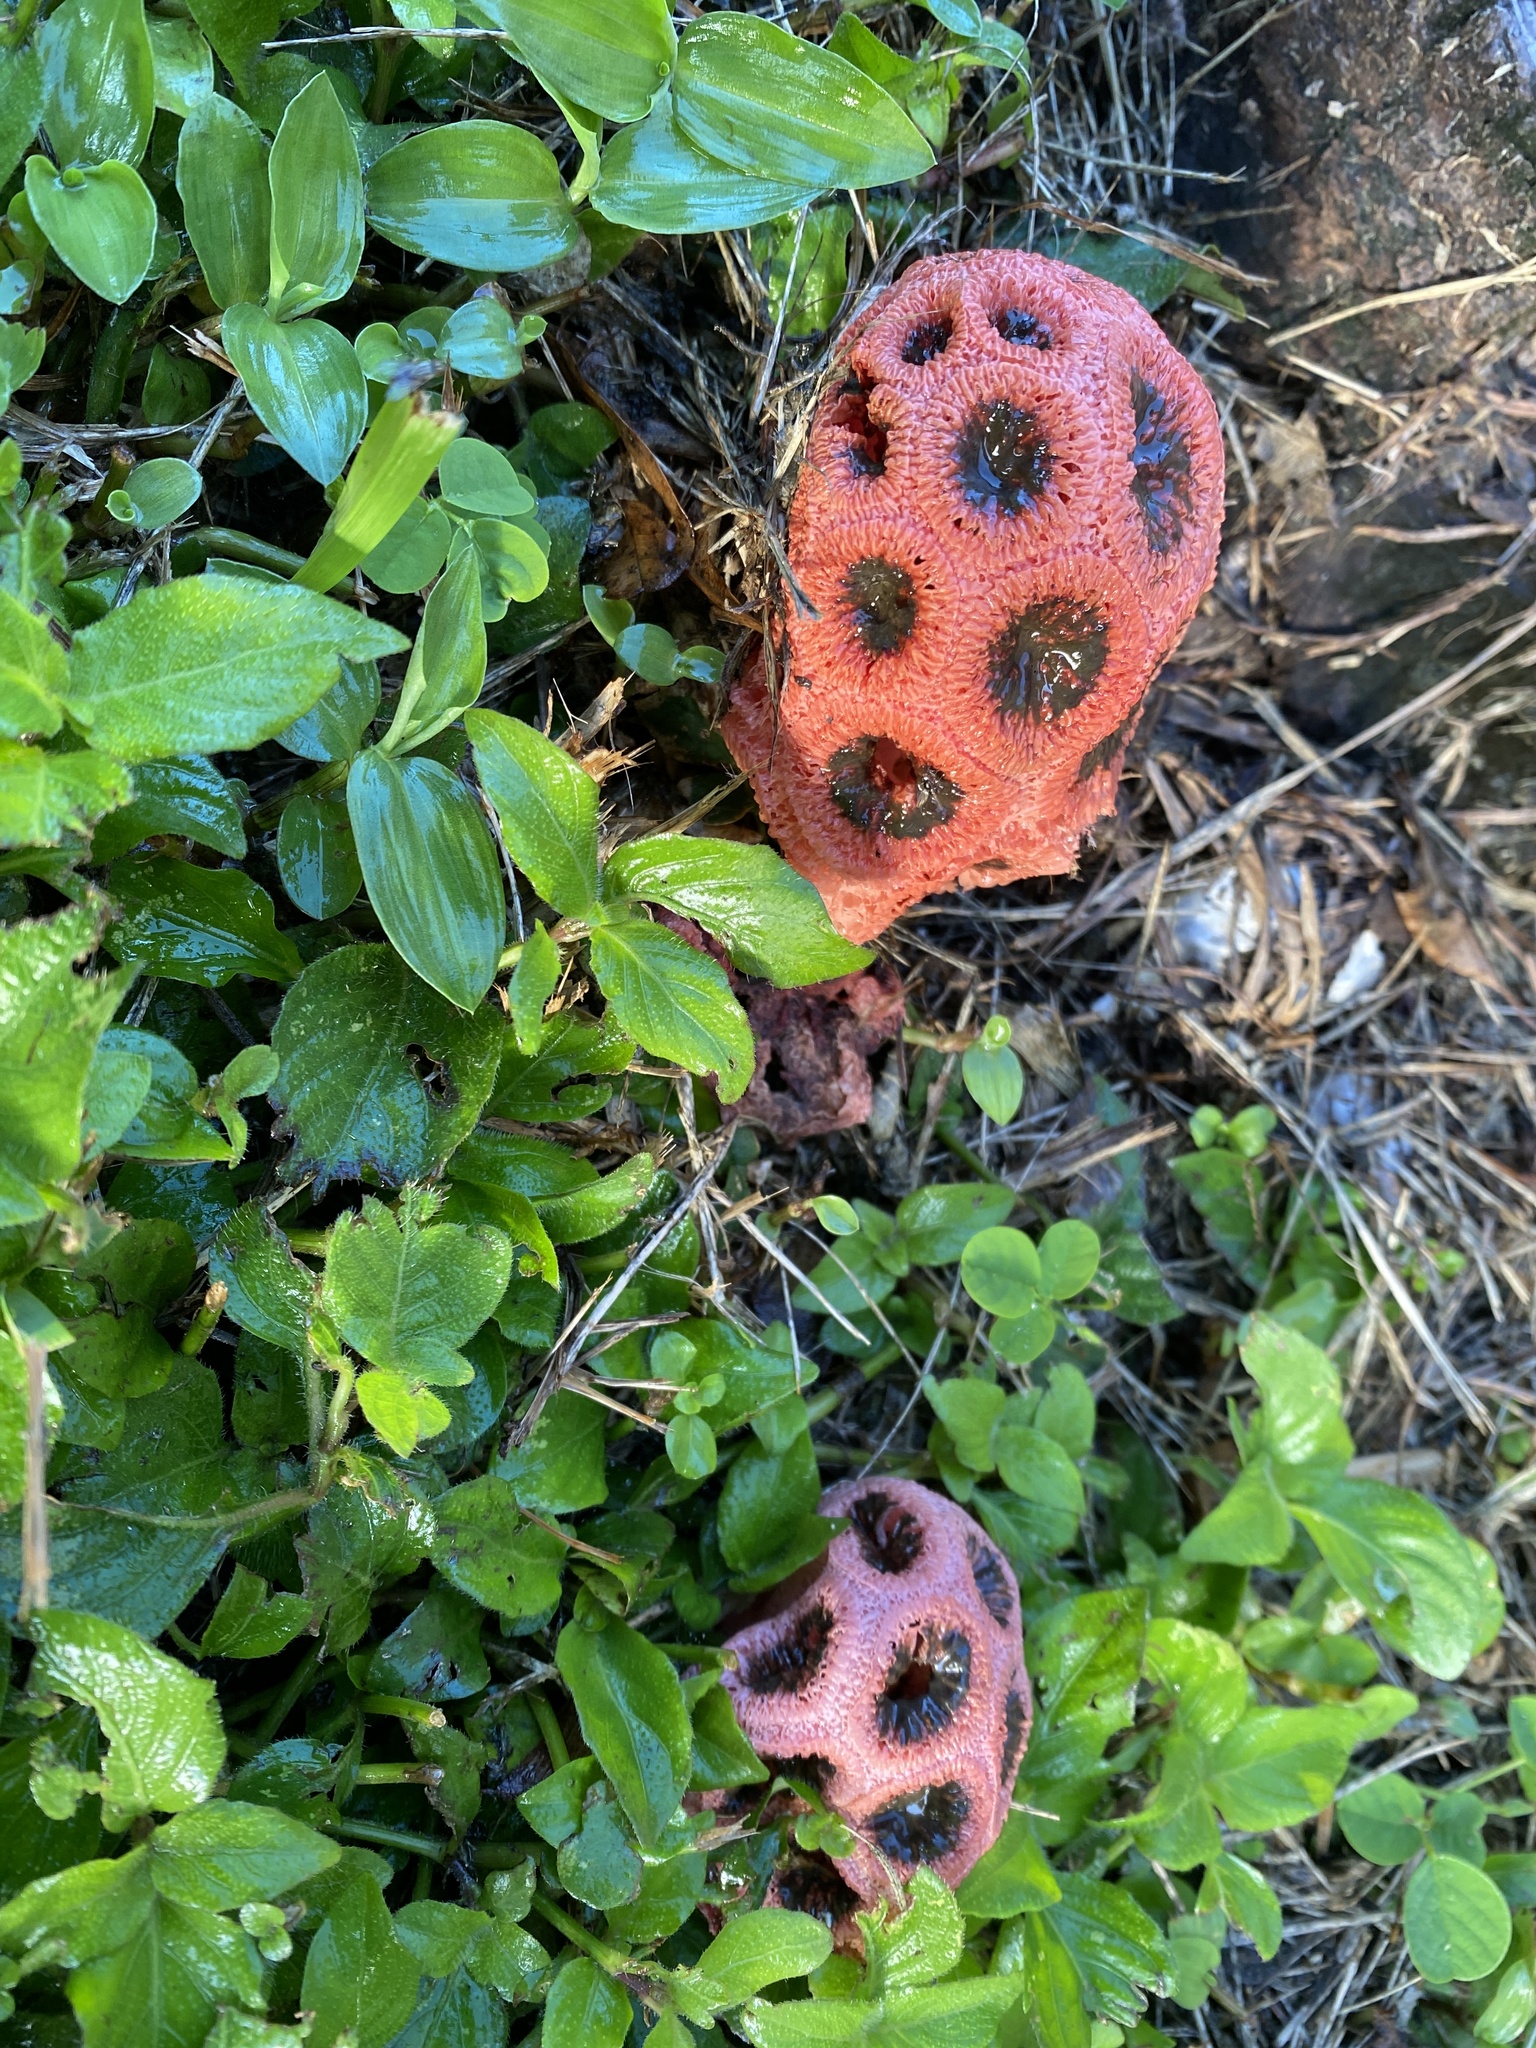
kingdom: Fungi
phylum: Basidiomycota
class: Agaricomycetes
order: Phallales
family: Phallaceae
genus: Clathrus
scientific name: Clathrus crispatus
